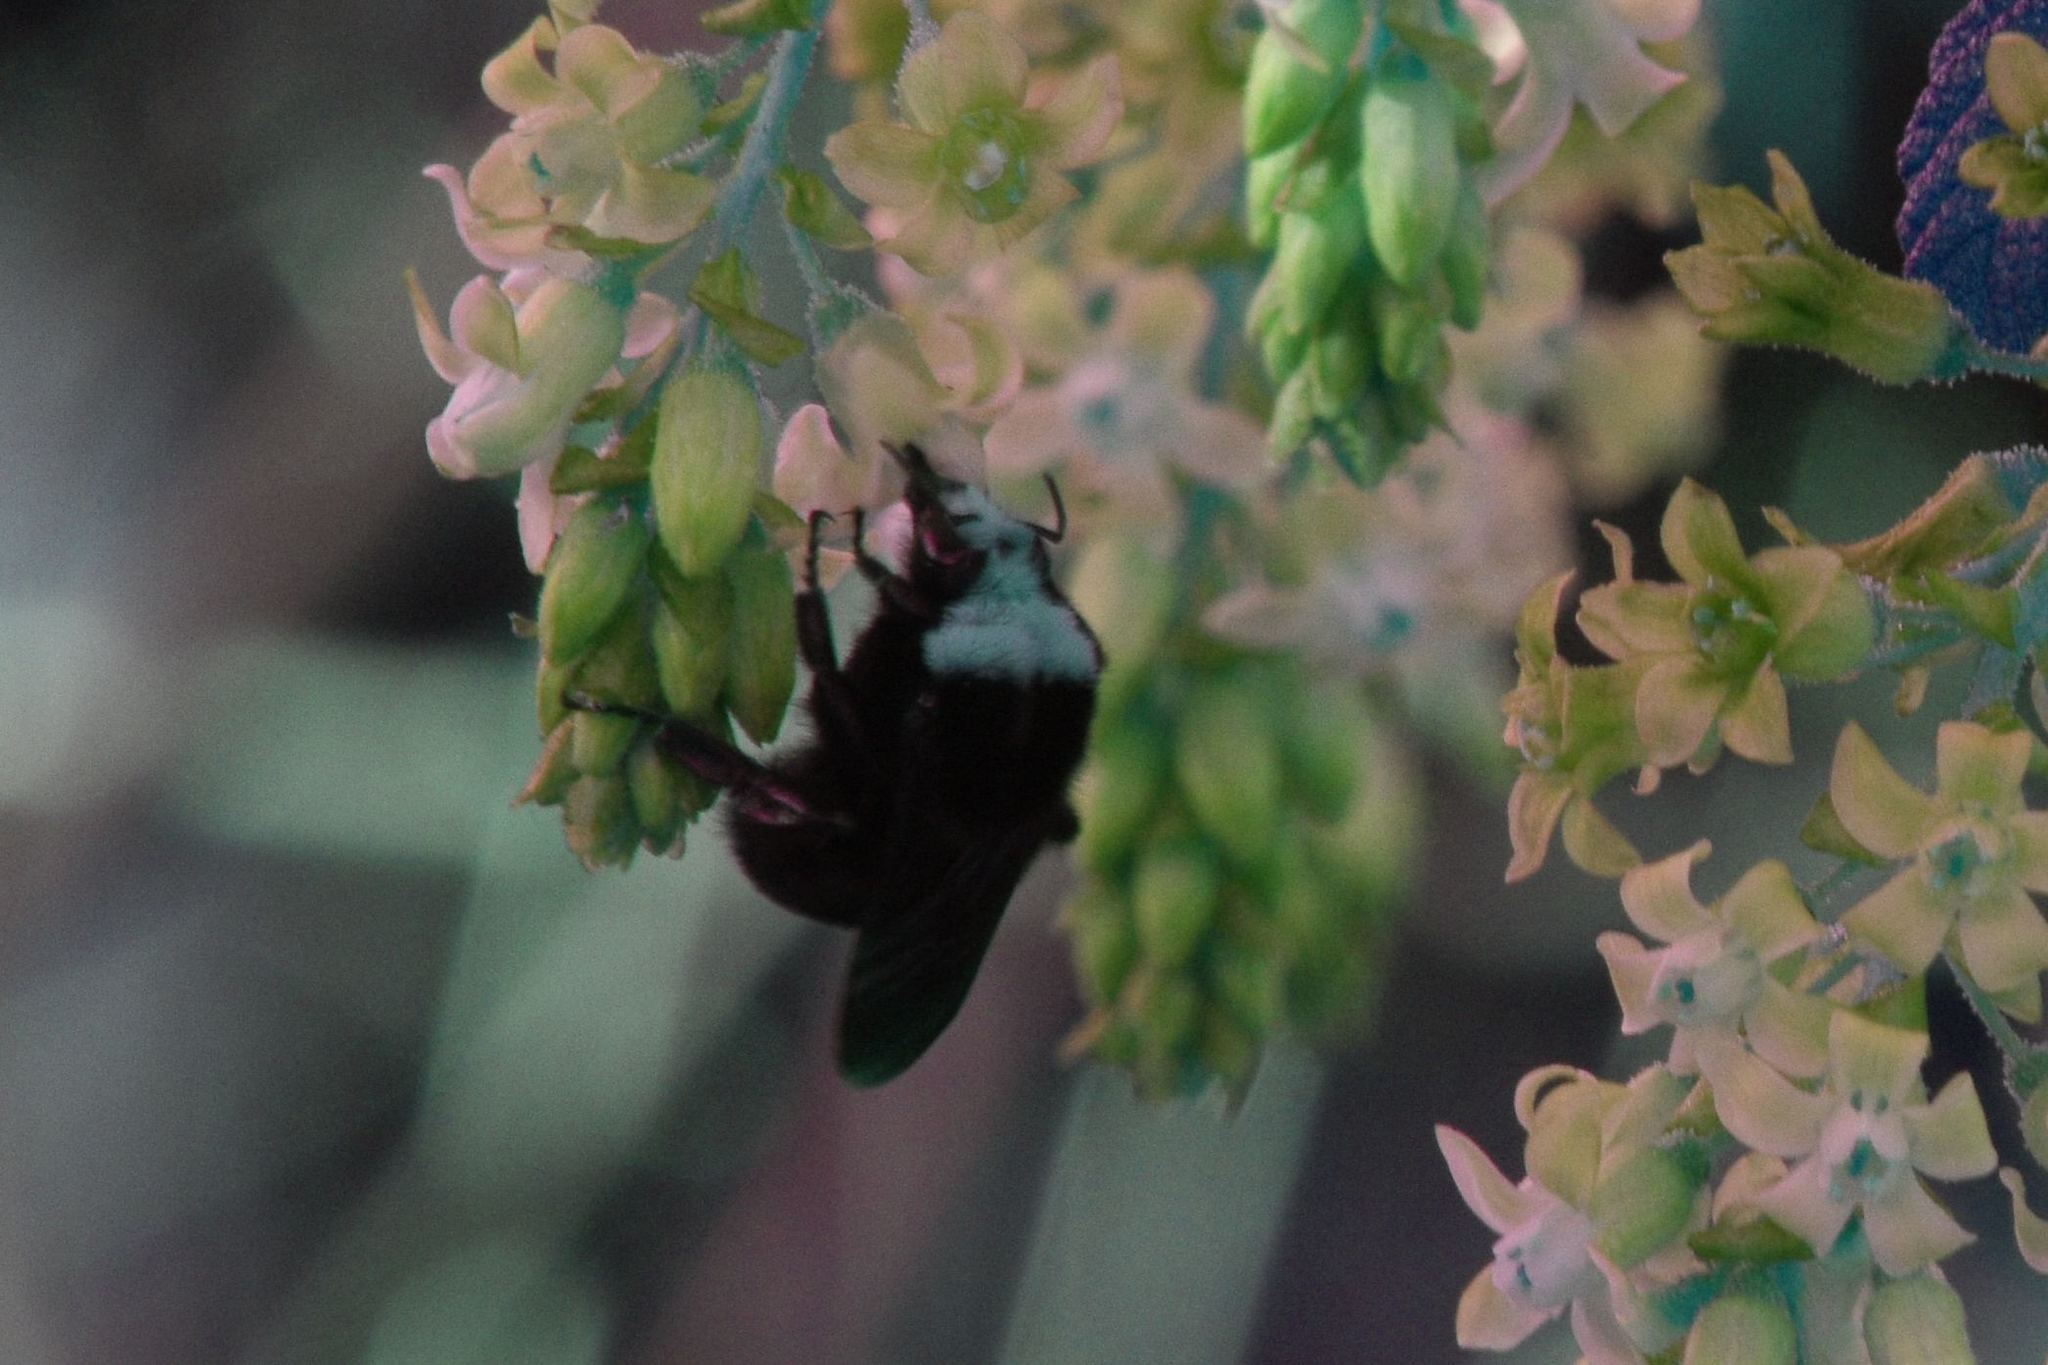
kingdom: Animalia
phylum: Arthropoda
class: Insecta
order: Hymenoptera
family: Apidae
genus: Pyrobombus
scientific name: Pyrobombus
